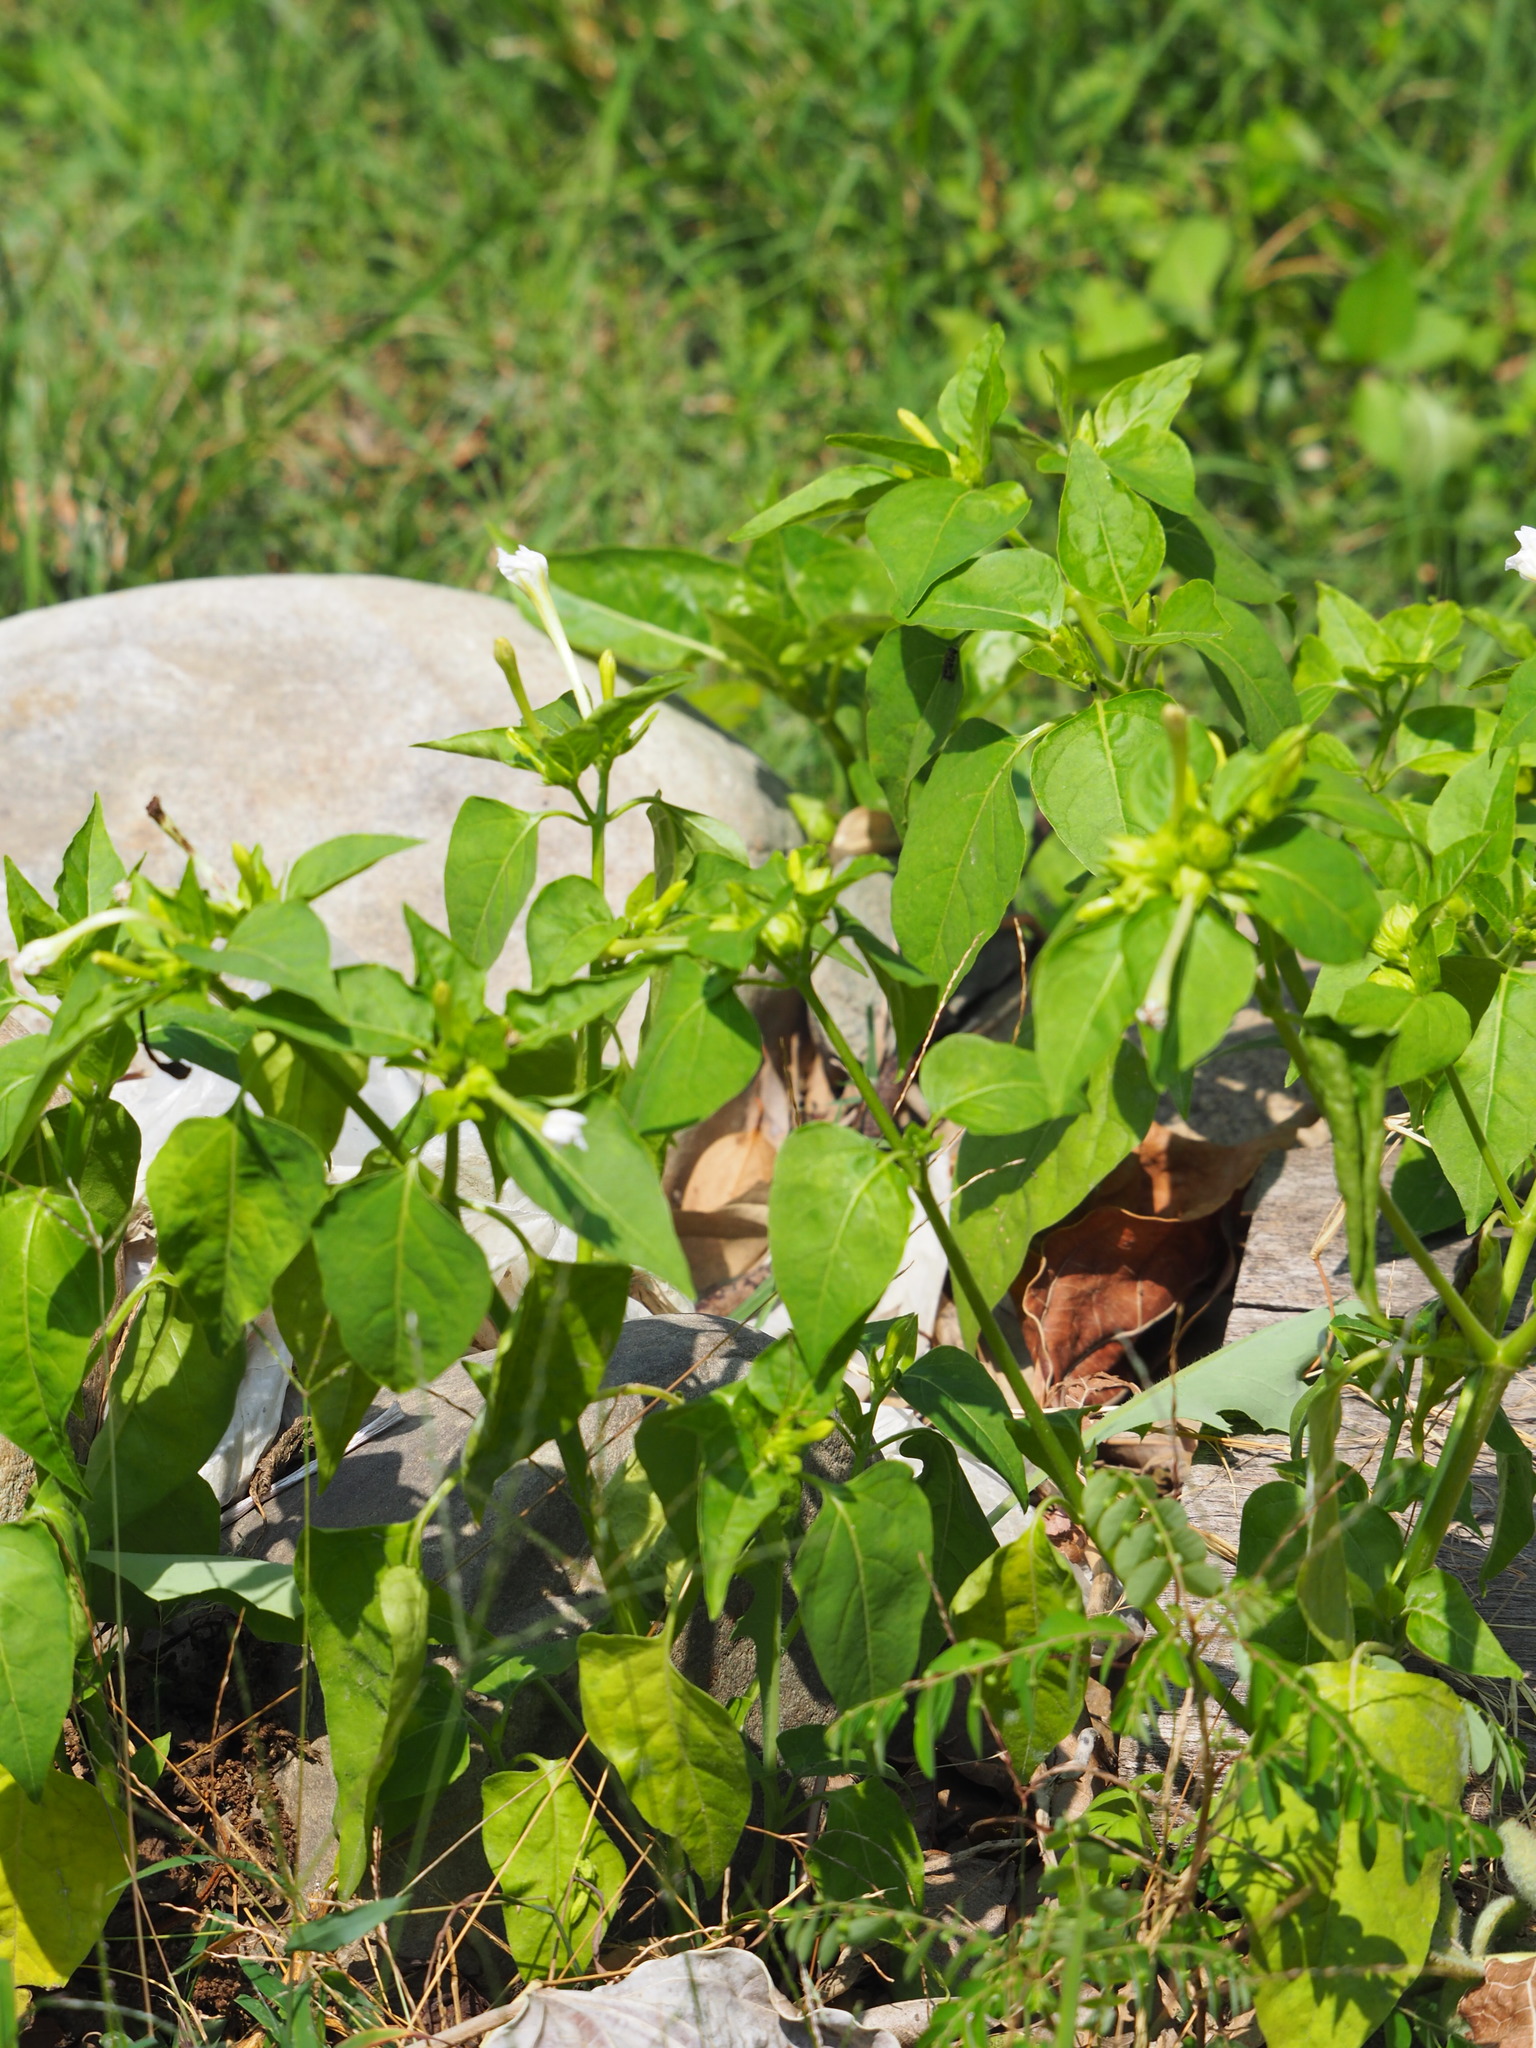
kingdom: Plantae
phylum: Tracheophyta
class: Magnoliopsida
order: Caryophyllales
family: Nyctaginaceae
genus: Mirabilis
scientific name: Mirabilis jalapa
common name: Marvel-of-peru
